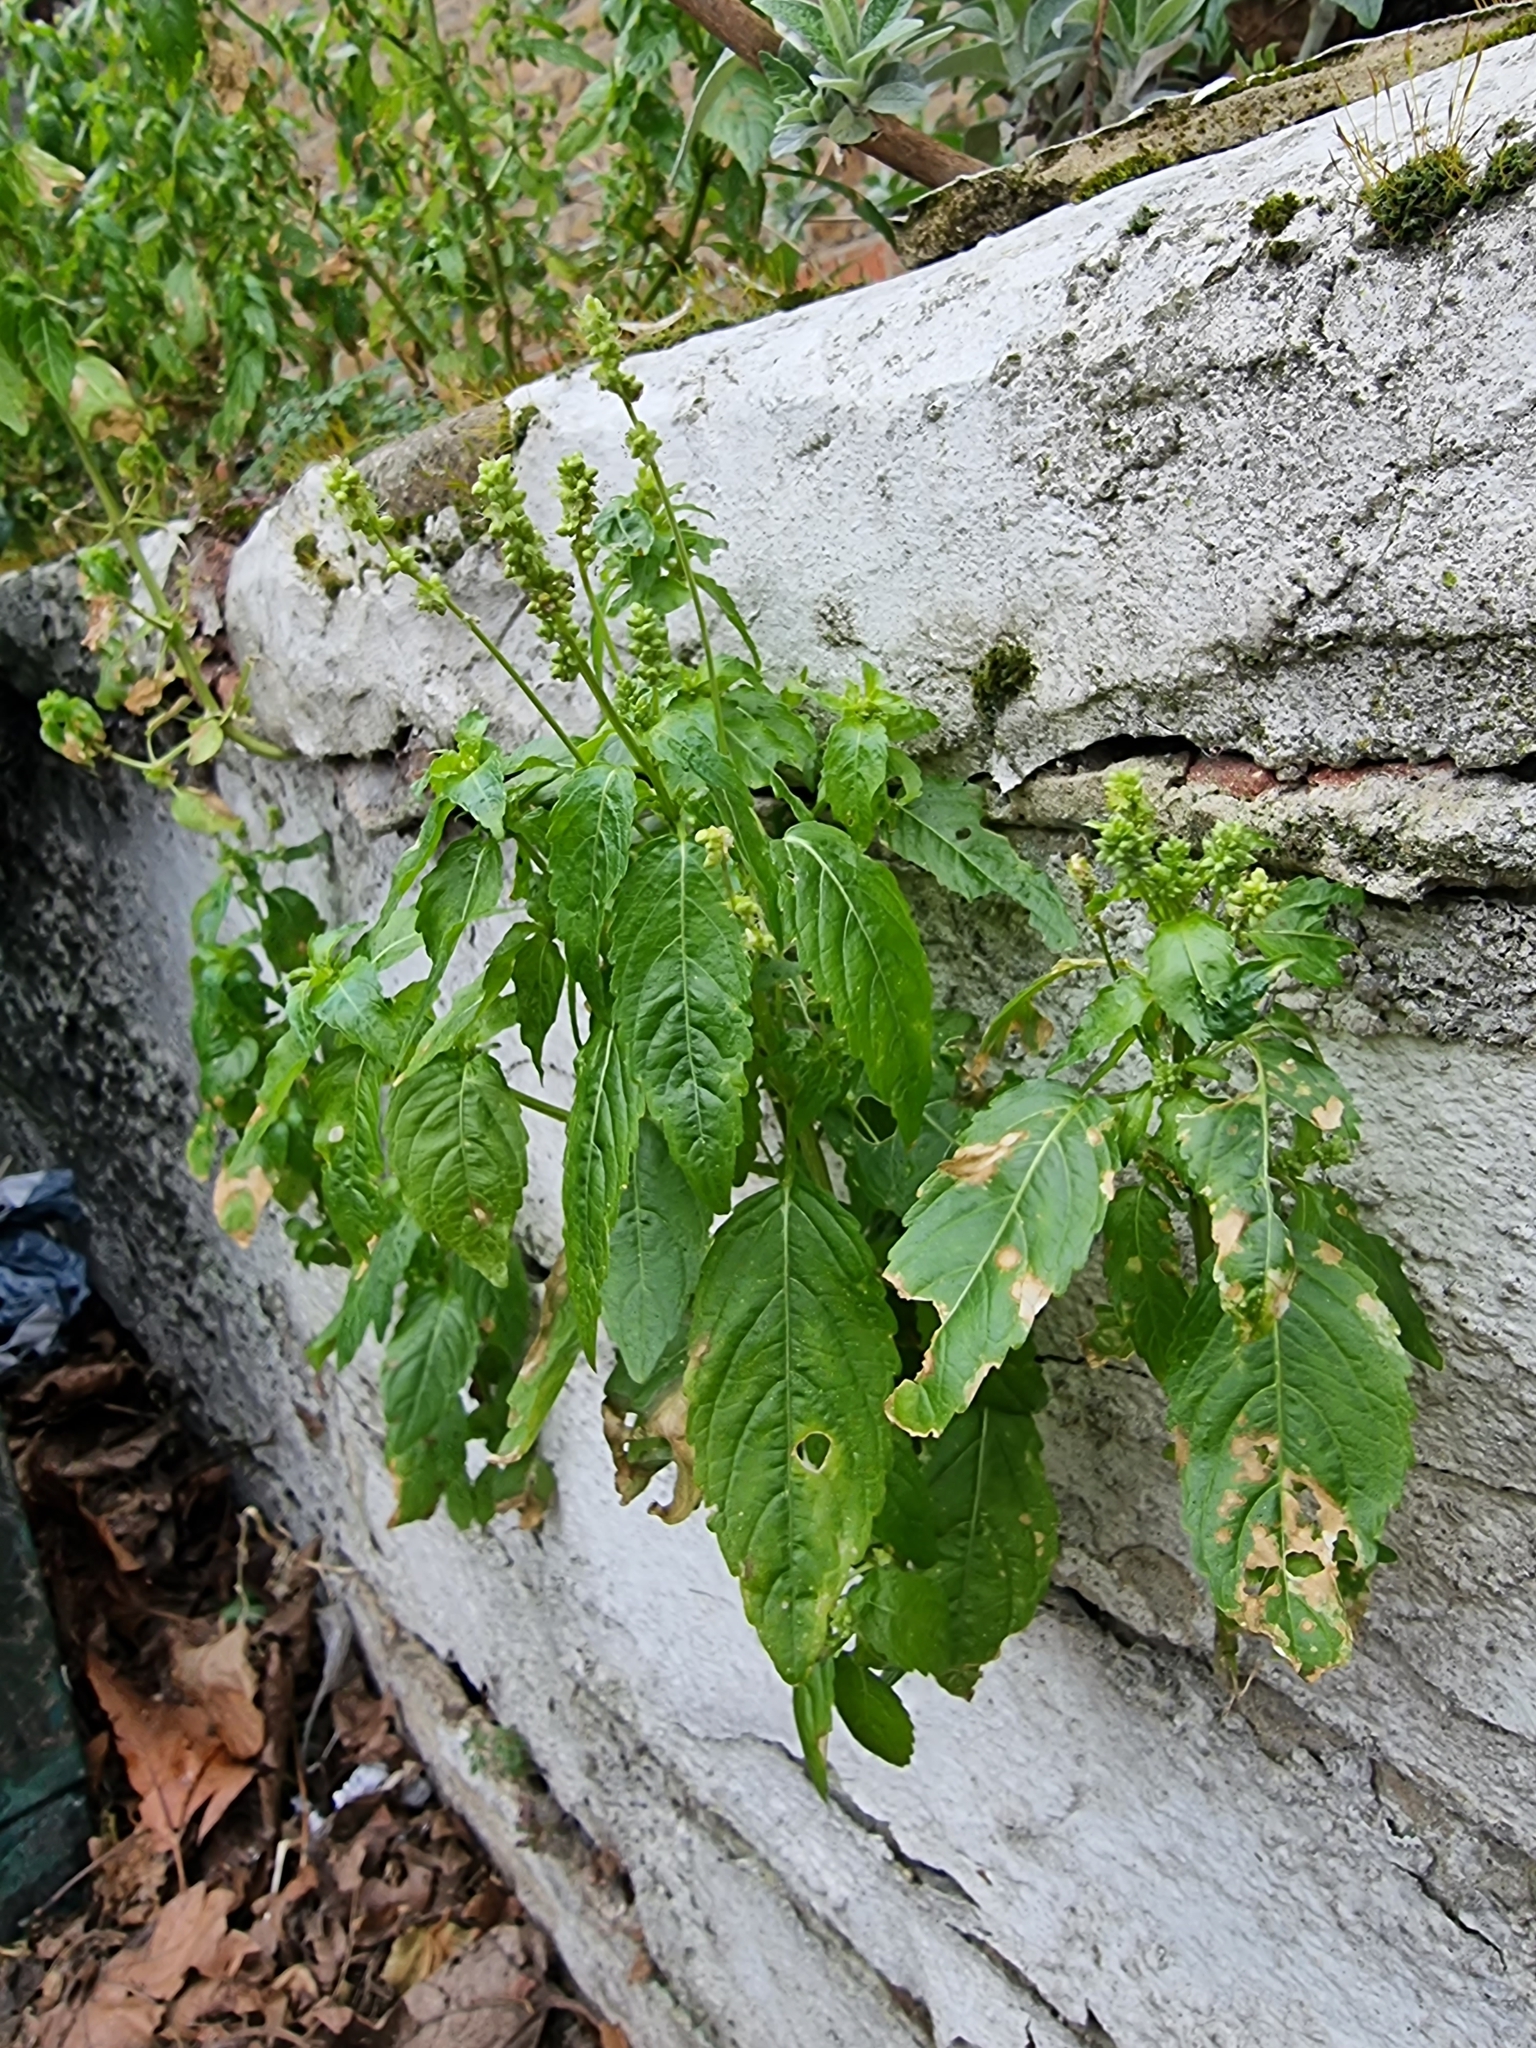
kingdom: Plantae
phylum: Tracheophyta
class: Magnoliopsida
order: Malpighiales
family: Euphorbiaceae
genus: Mercurialis
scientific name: Mercurialis annua
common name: Annual mercury
